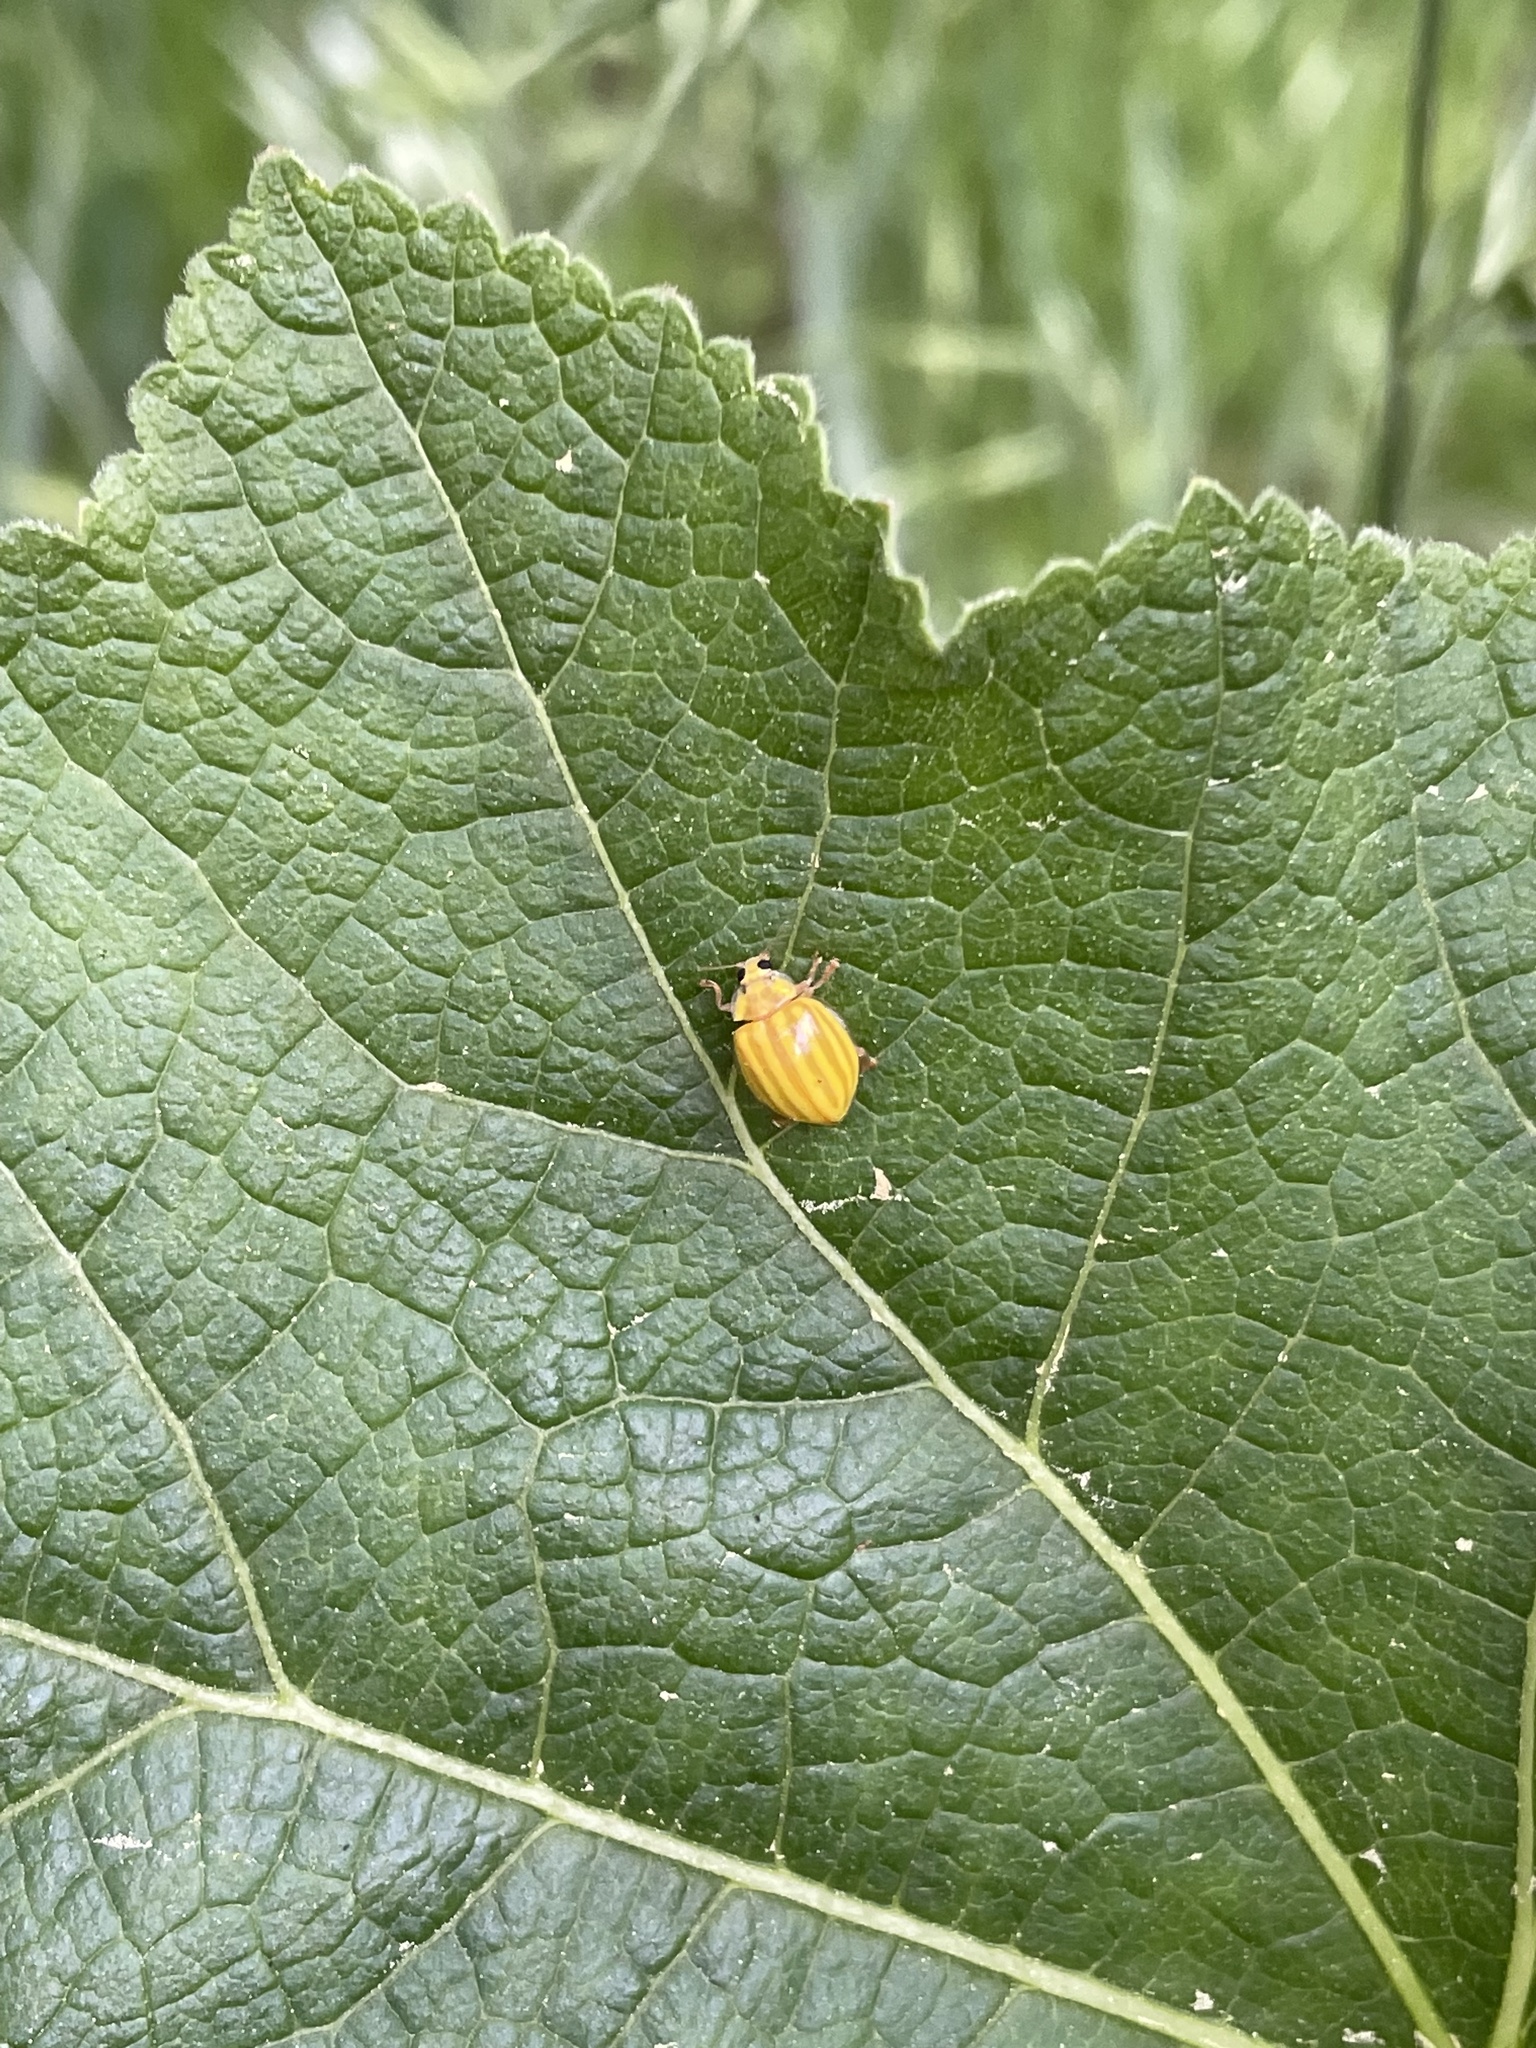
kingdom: Animalia
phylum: Arthropoda
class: Insecta
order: Coleoptera
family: Coccinellidae
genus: Macroilleis
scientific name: Macroilleis hauseri
